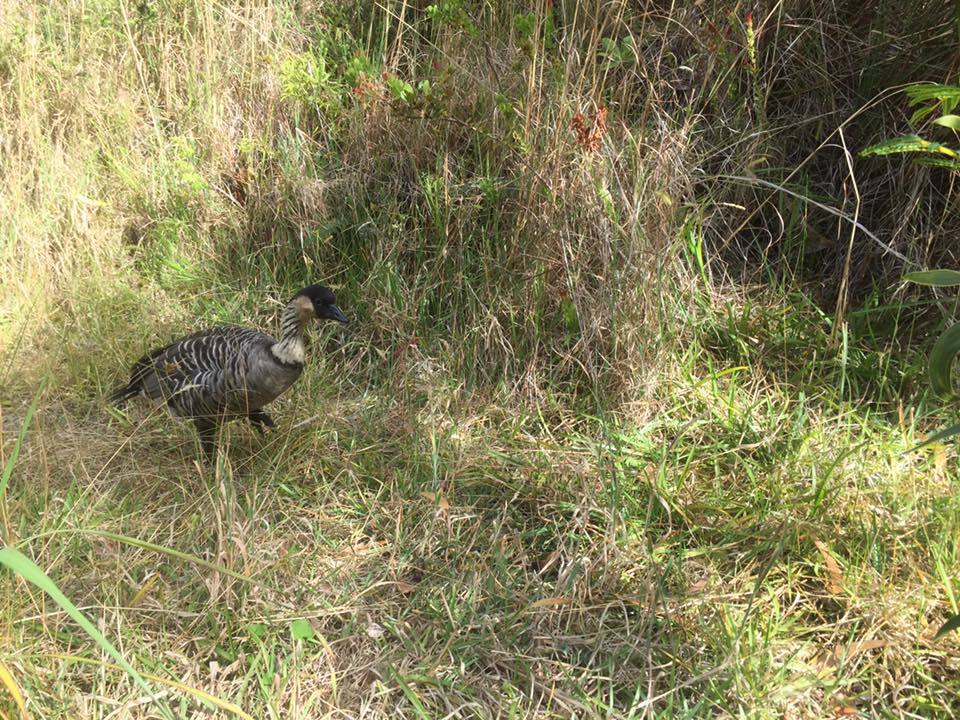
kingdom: Animalia
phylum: Chordata
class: Aves
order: Anseriformes
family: Anatidae
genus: Branta
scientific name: Branta sandvicensis
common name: Nene
